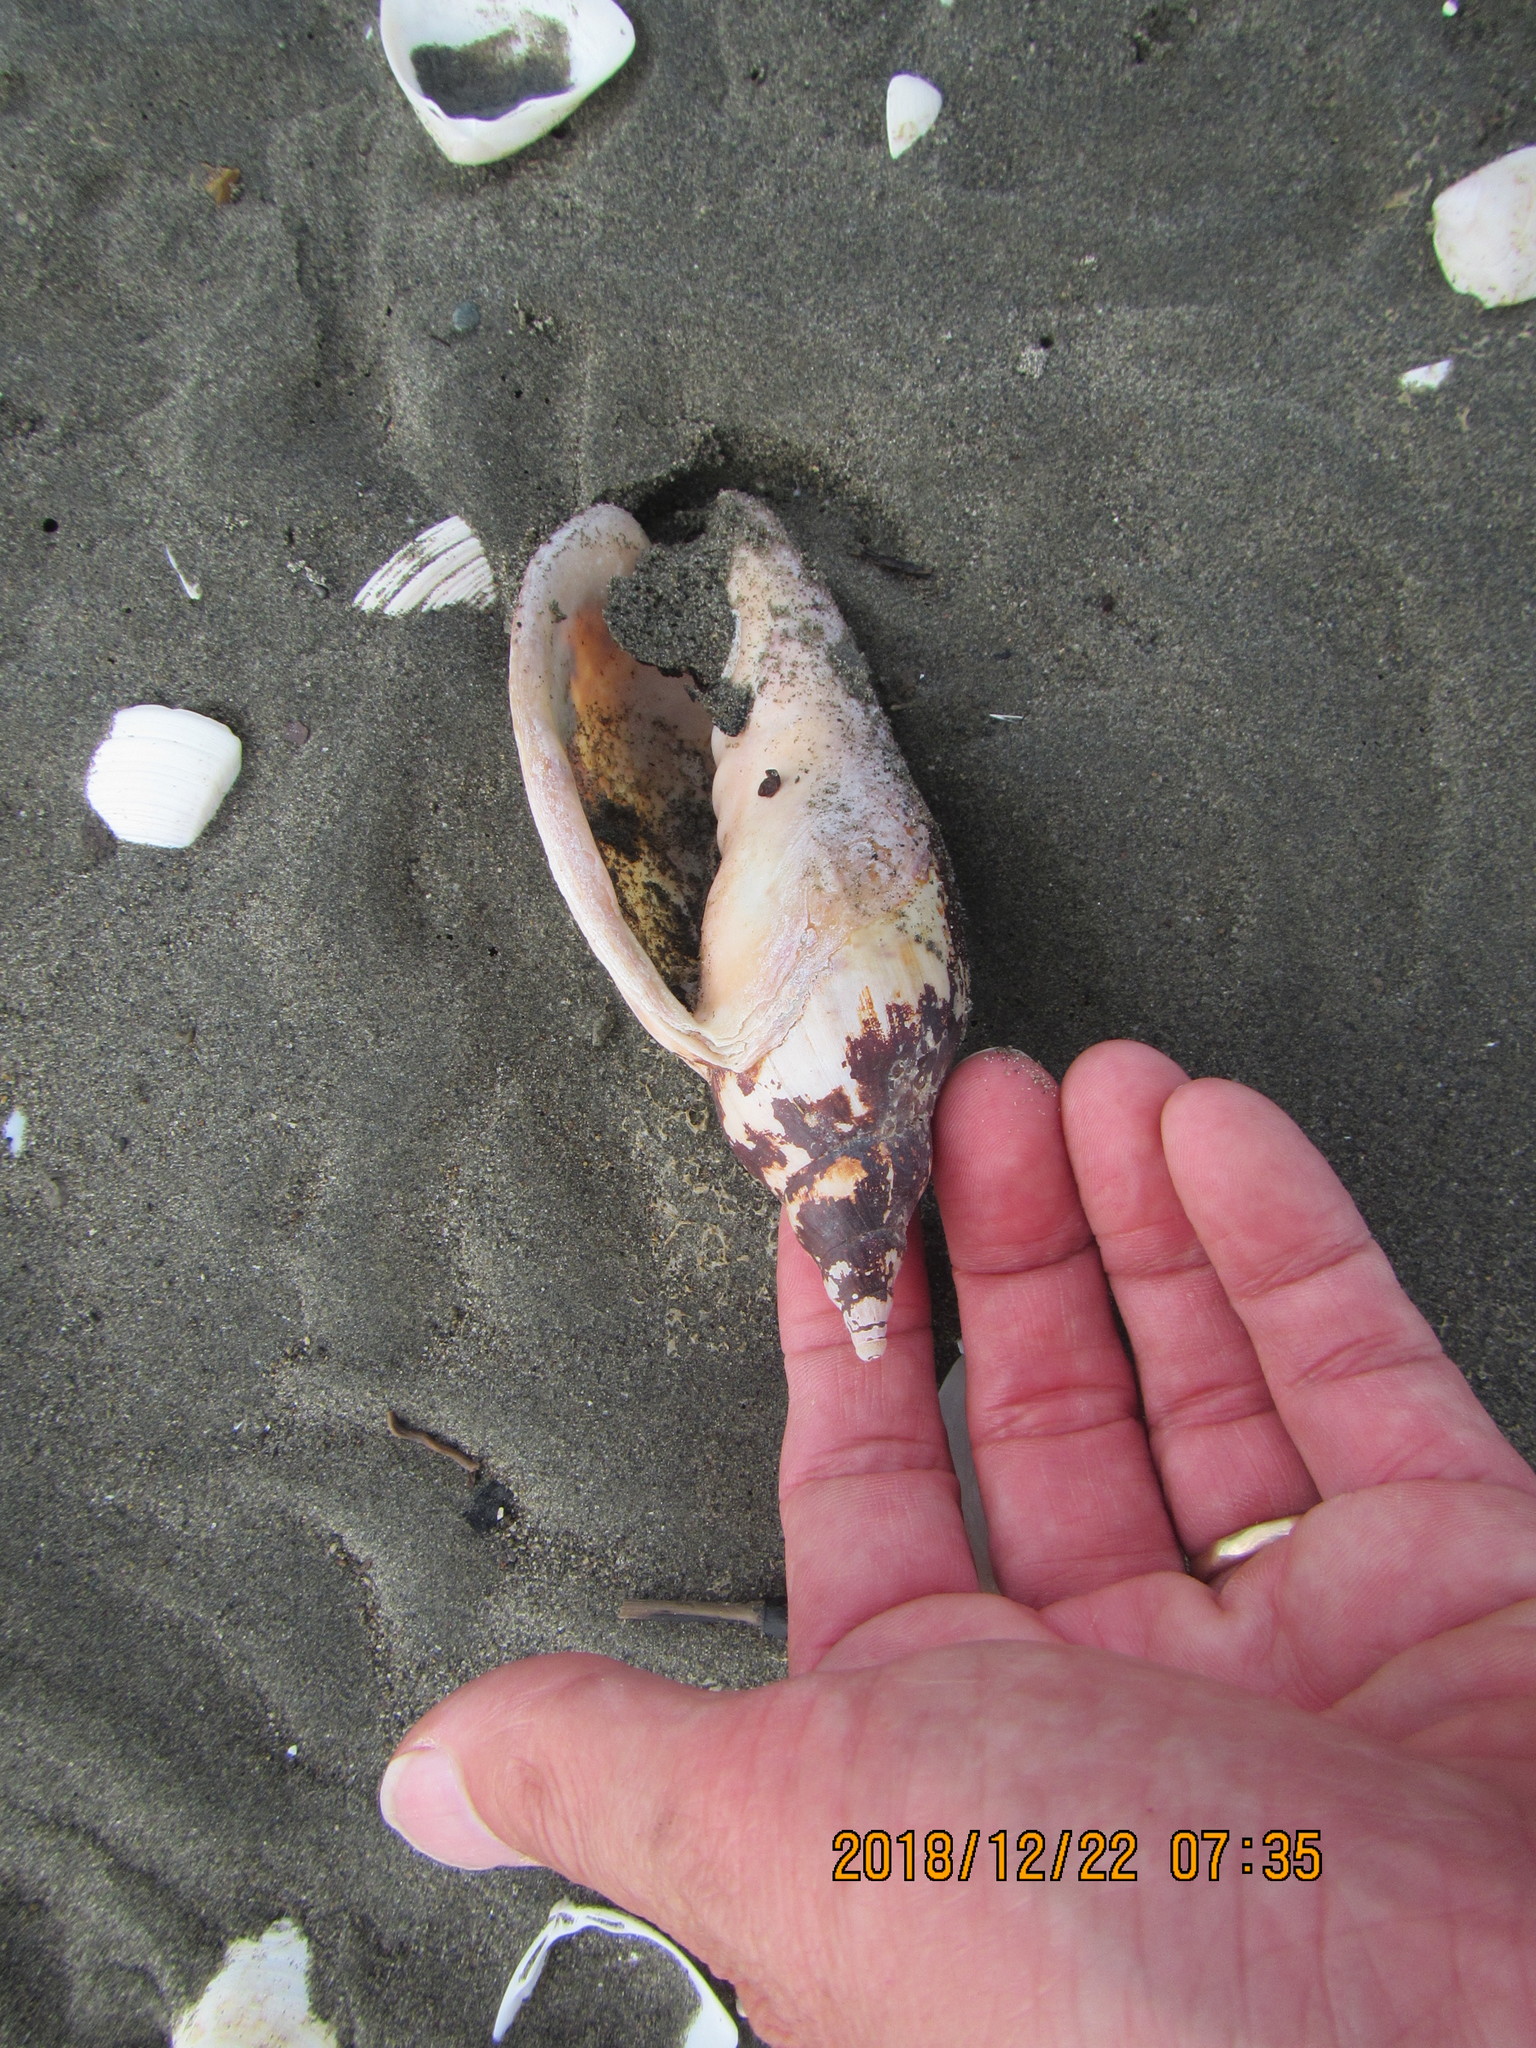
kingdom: Animalia
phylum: Mollusca
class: Gastropoda
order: Neogastropoda
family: Volutidae
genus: Alcithoe
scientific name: Alcithoe arabica
